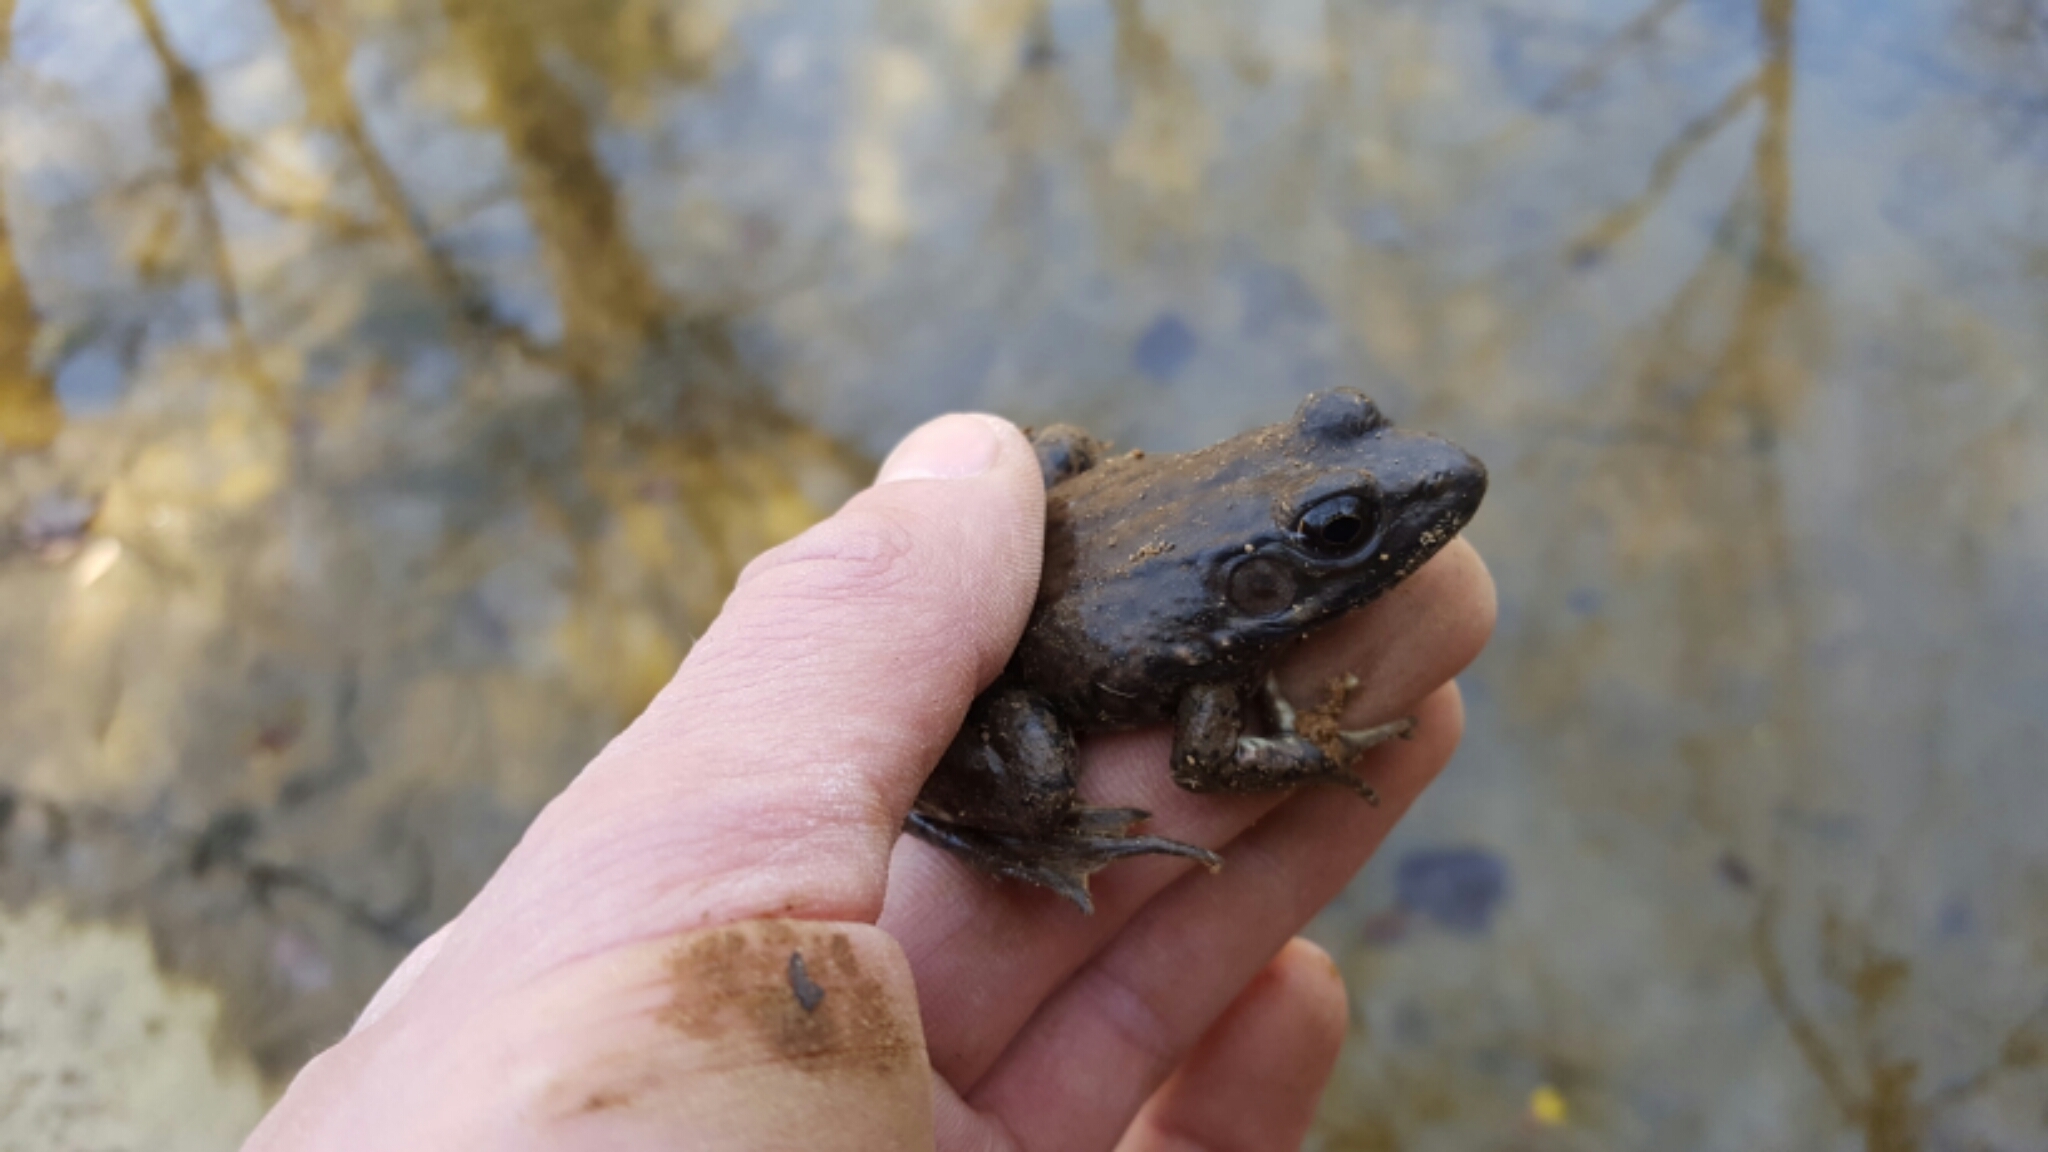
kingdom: Animalia
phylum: Chordata
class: Amphibia
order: Anura
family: Ranidae
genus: Lithobates
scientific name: Lithobates clamitans
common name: Green frog
